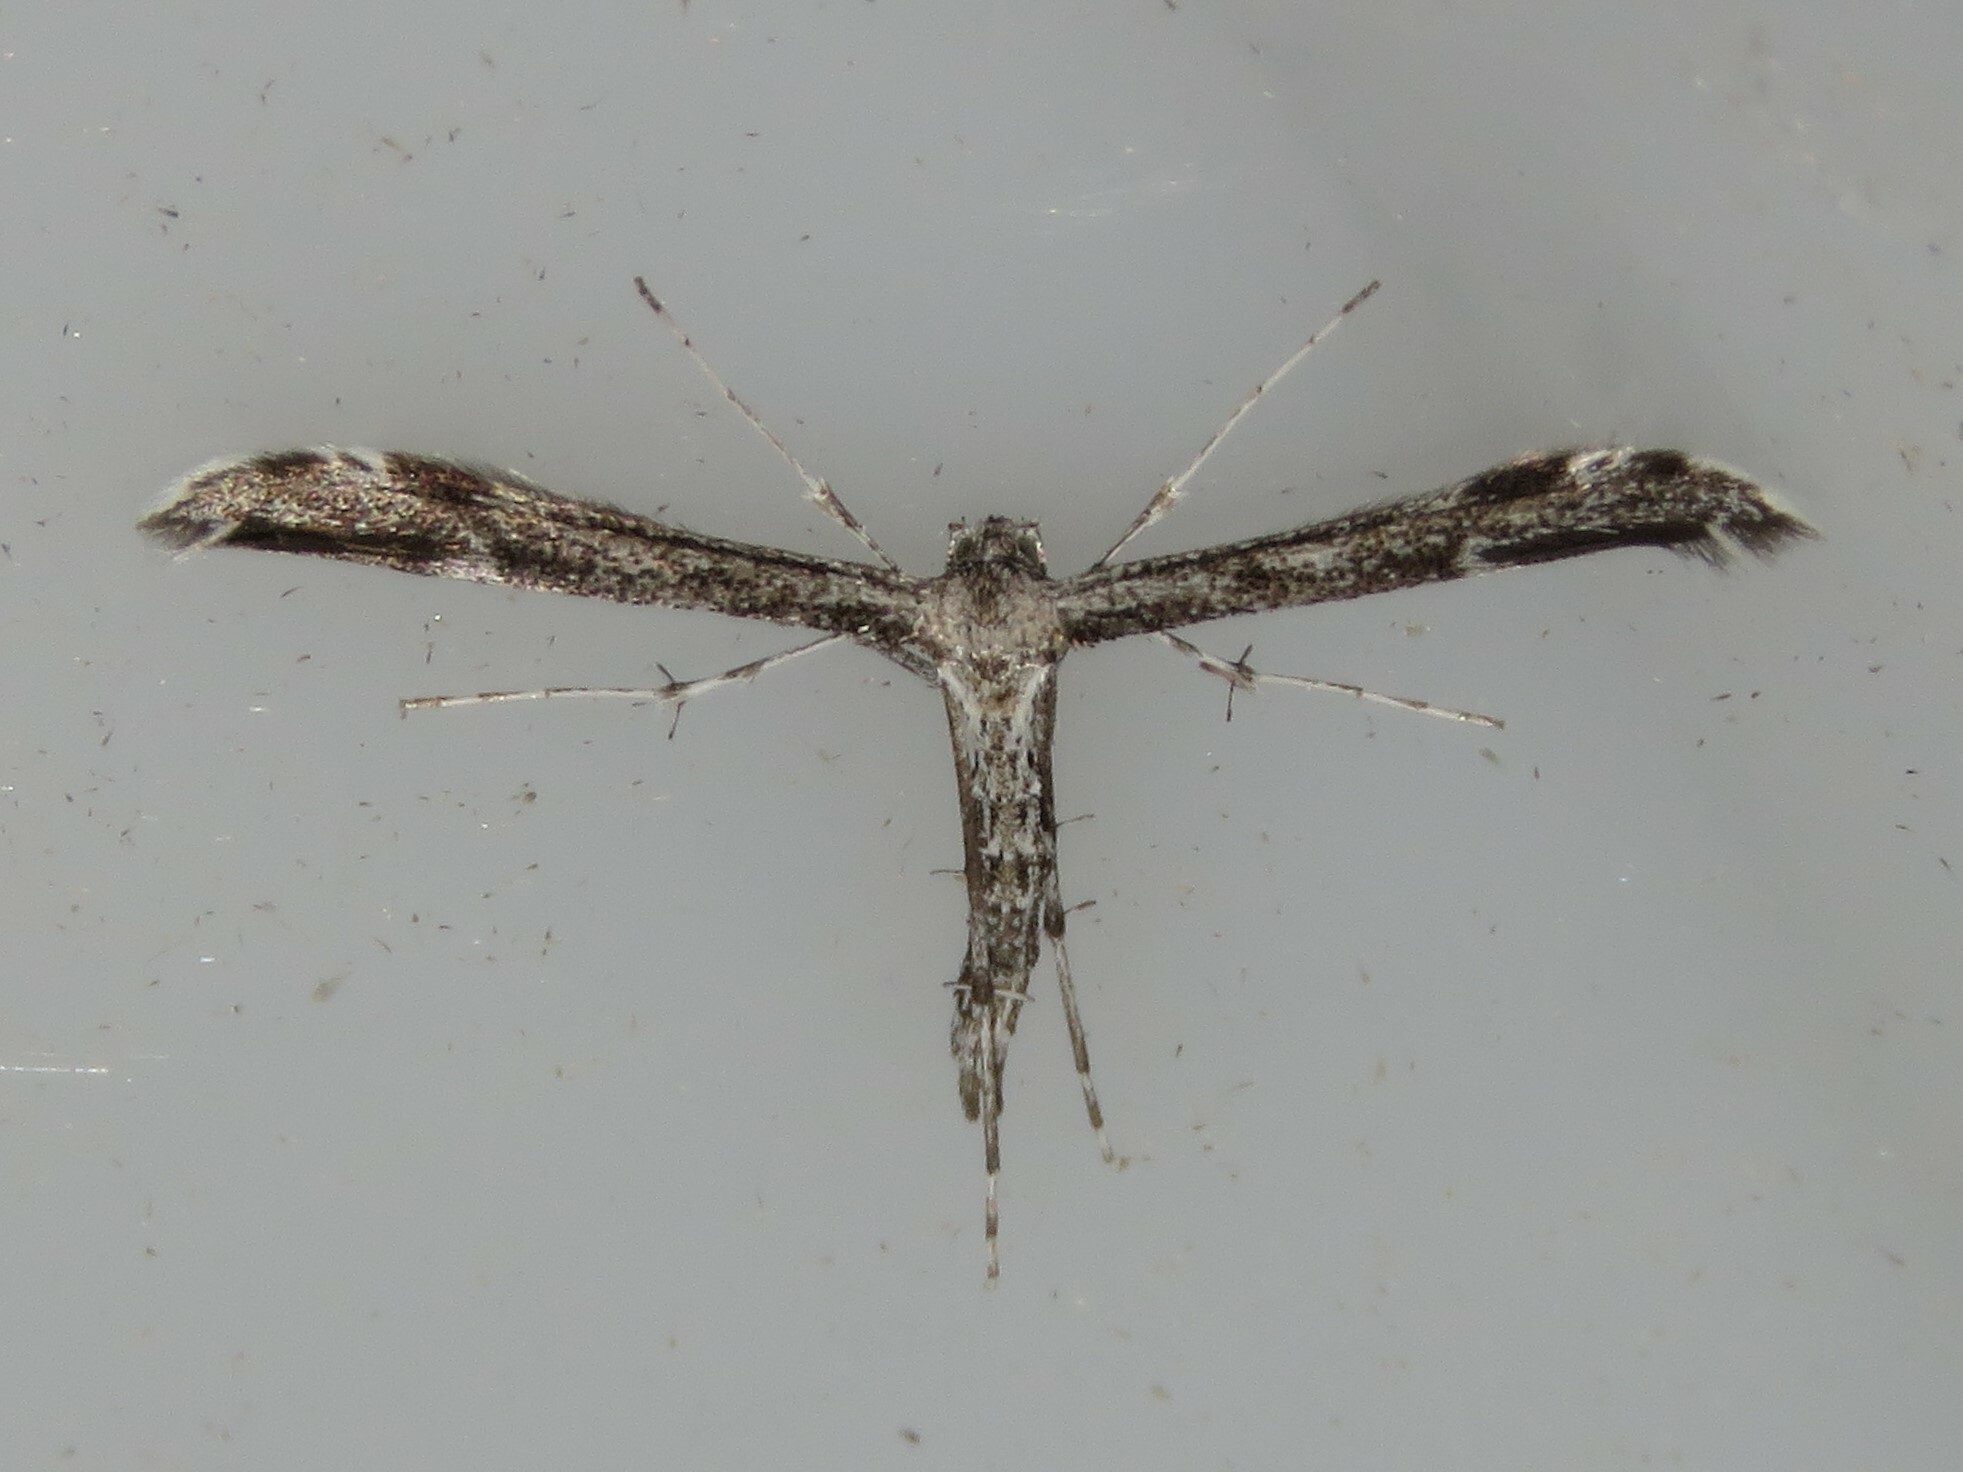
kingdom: Animalia
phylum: Arthropoda
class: Insecta
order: Lepidoptera
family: Pterophoridae
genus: Hellinsia
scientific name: Hellinsia inquinatus
